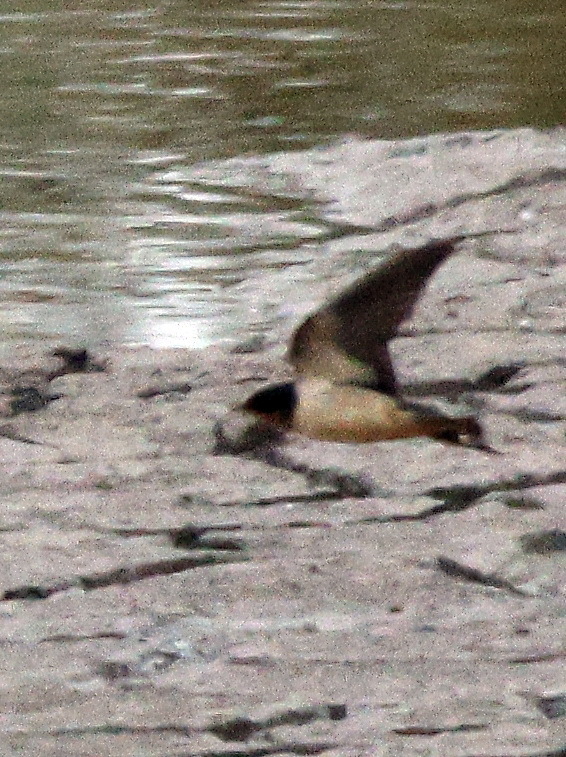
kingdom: Animalia
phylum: Chordata
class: Aves
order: Passeriformes
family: Hirundinidae
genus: Hirundo
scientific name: Hirundo rustica
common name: Barn swallow
